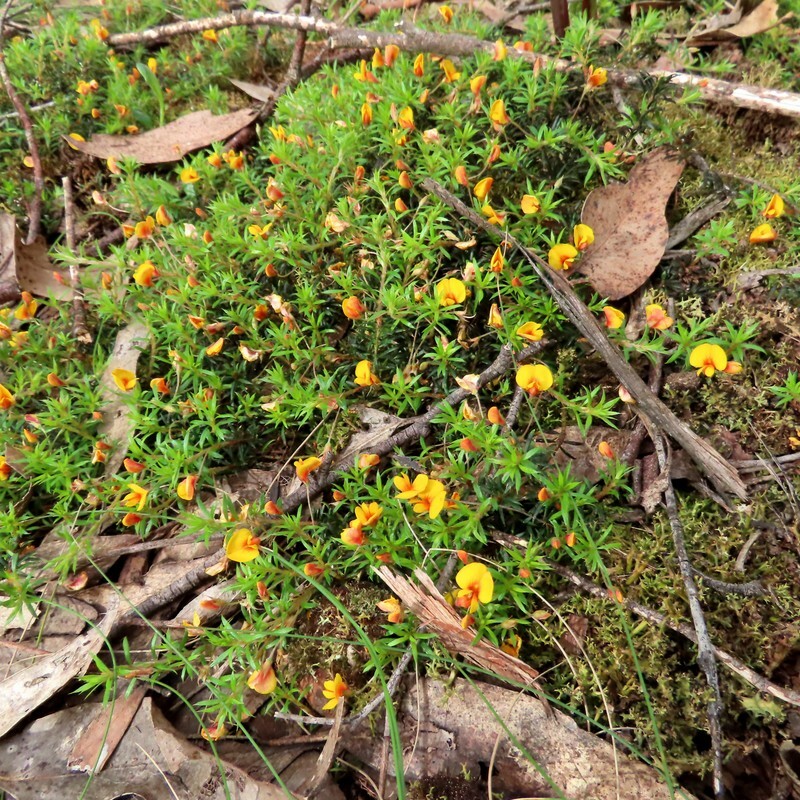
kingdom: Plantae
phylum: Tracheophyta
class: Magnoliopsida
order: Fabales
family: Fabaceae
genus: Pultenaea
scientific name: Pultenaea pedunculata
